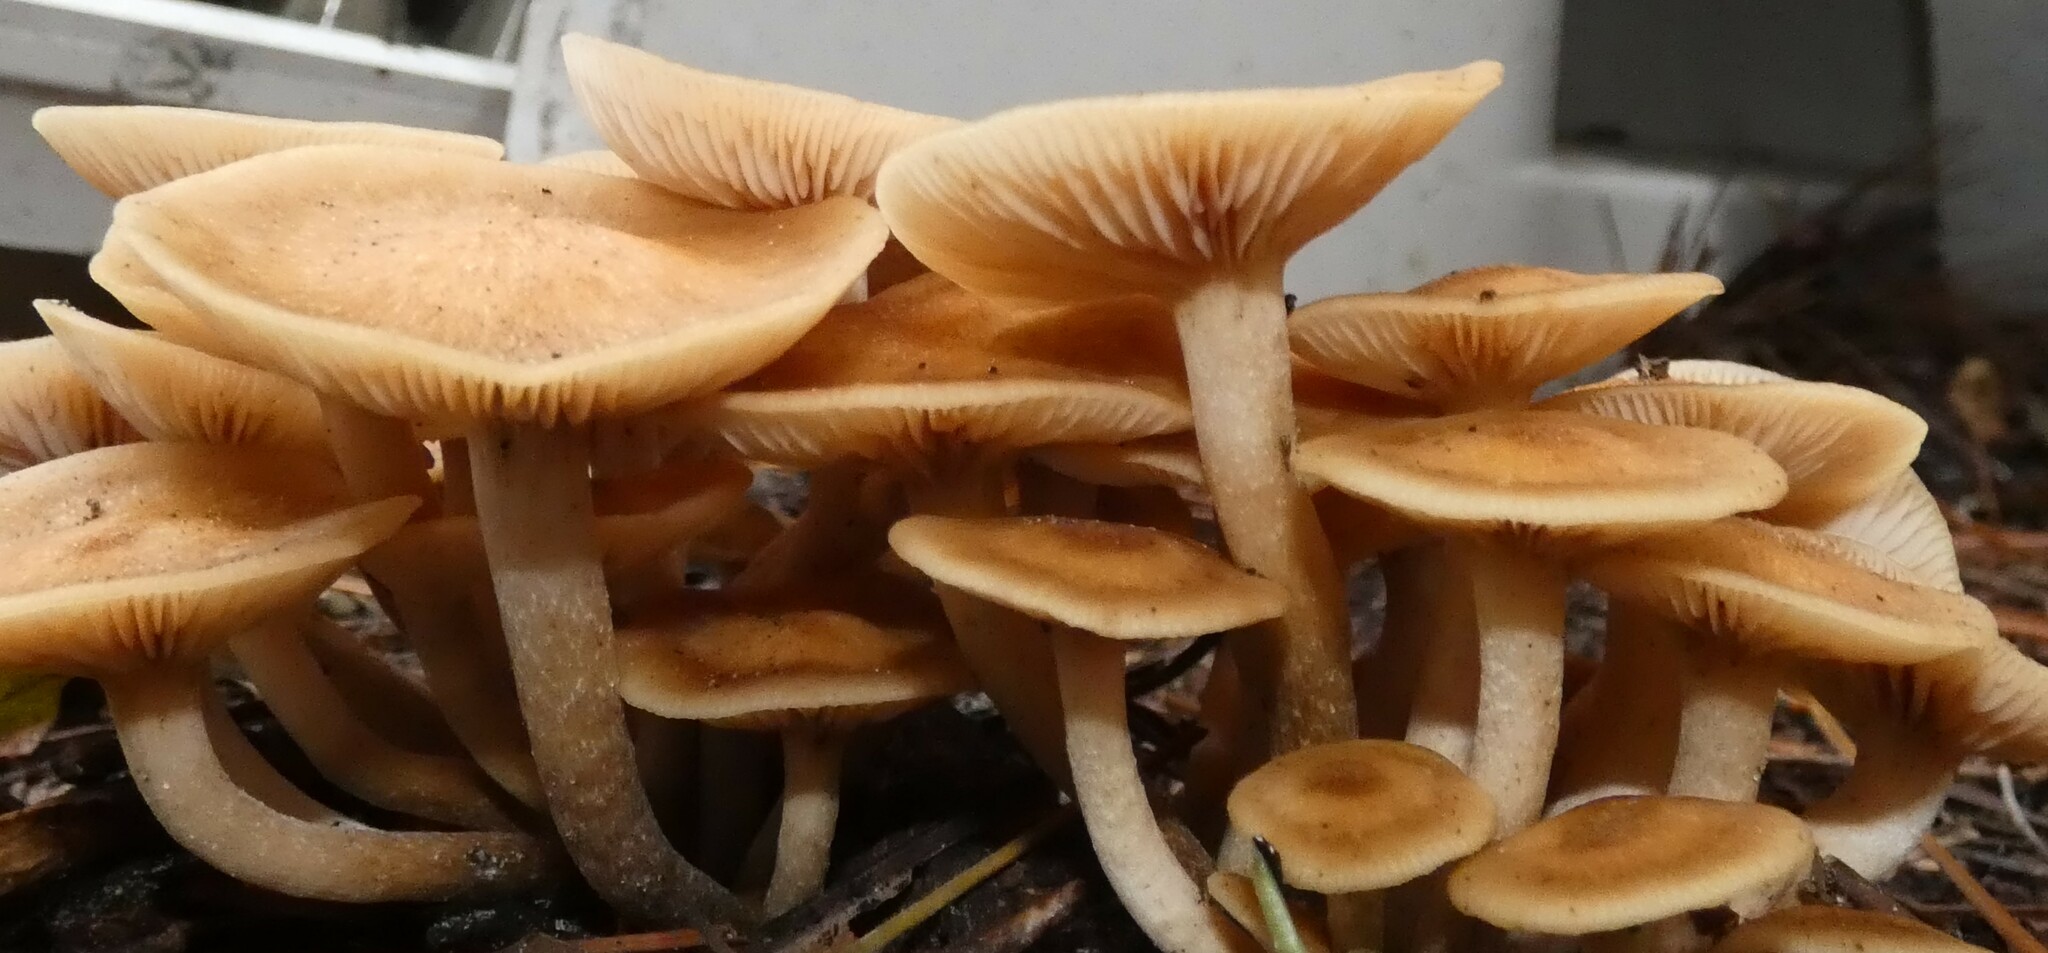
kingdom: Fungi
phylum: Basidiomycota
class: Agaricomycetes
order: Agaricales
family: Physalacriaceae
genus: Desarmillaria
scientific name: Desarmillaria caespitosa
